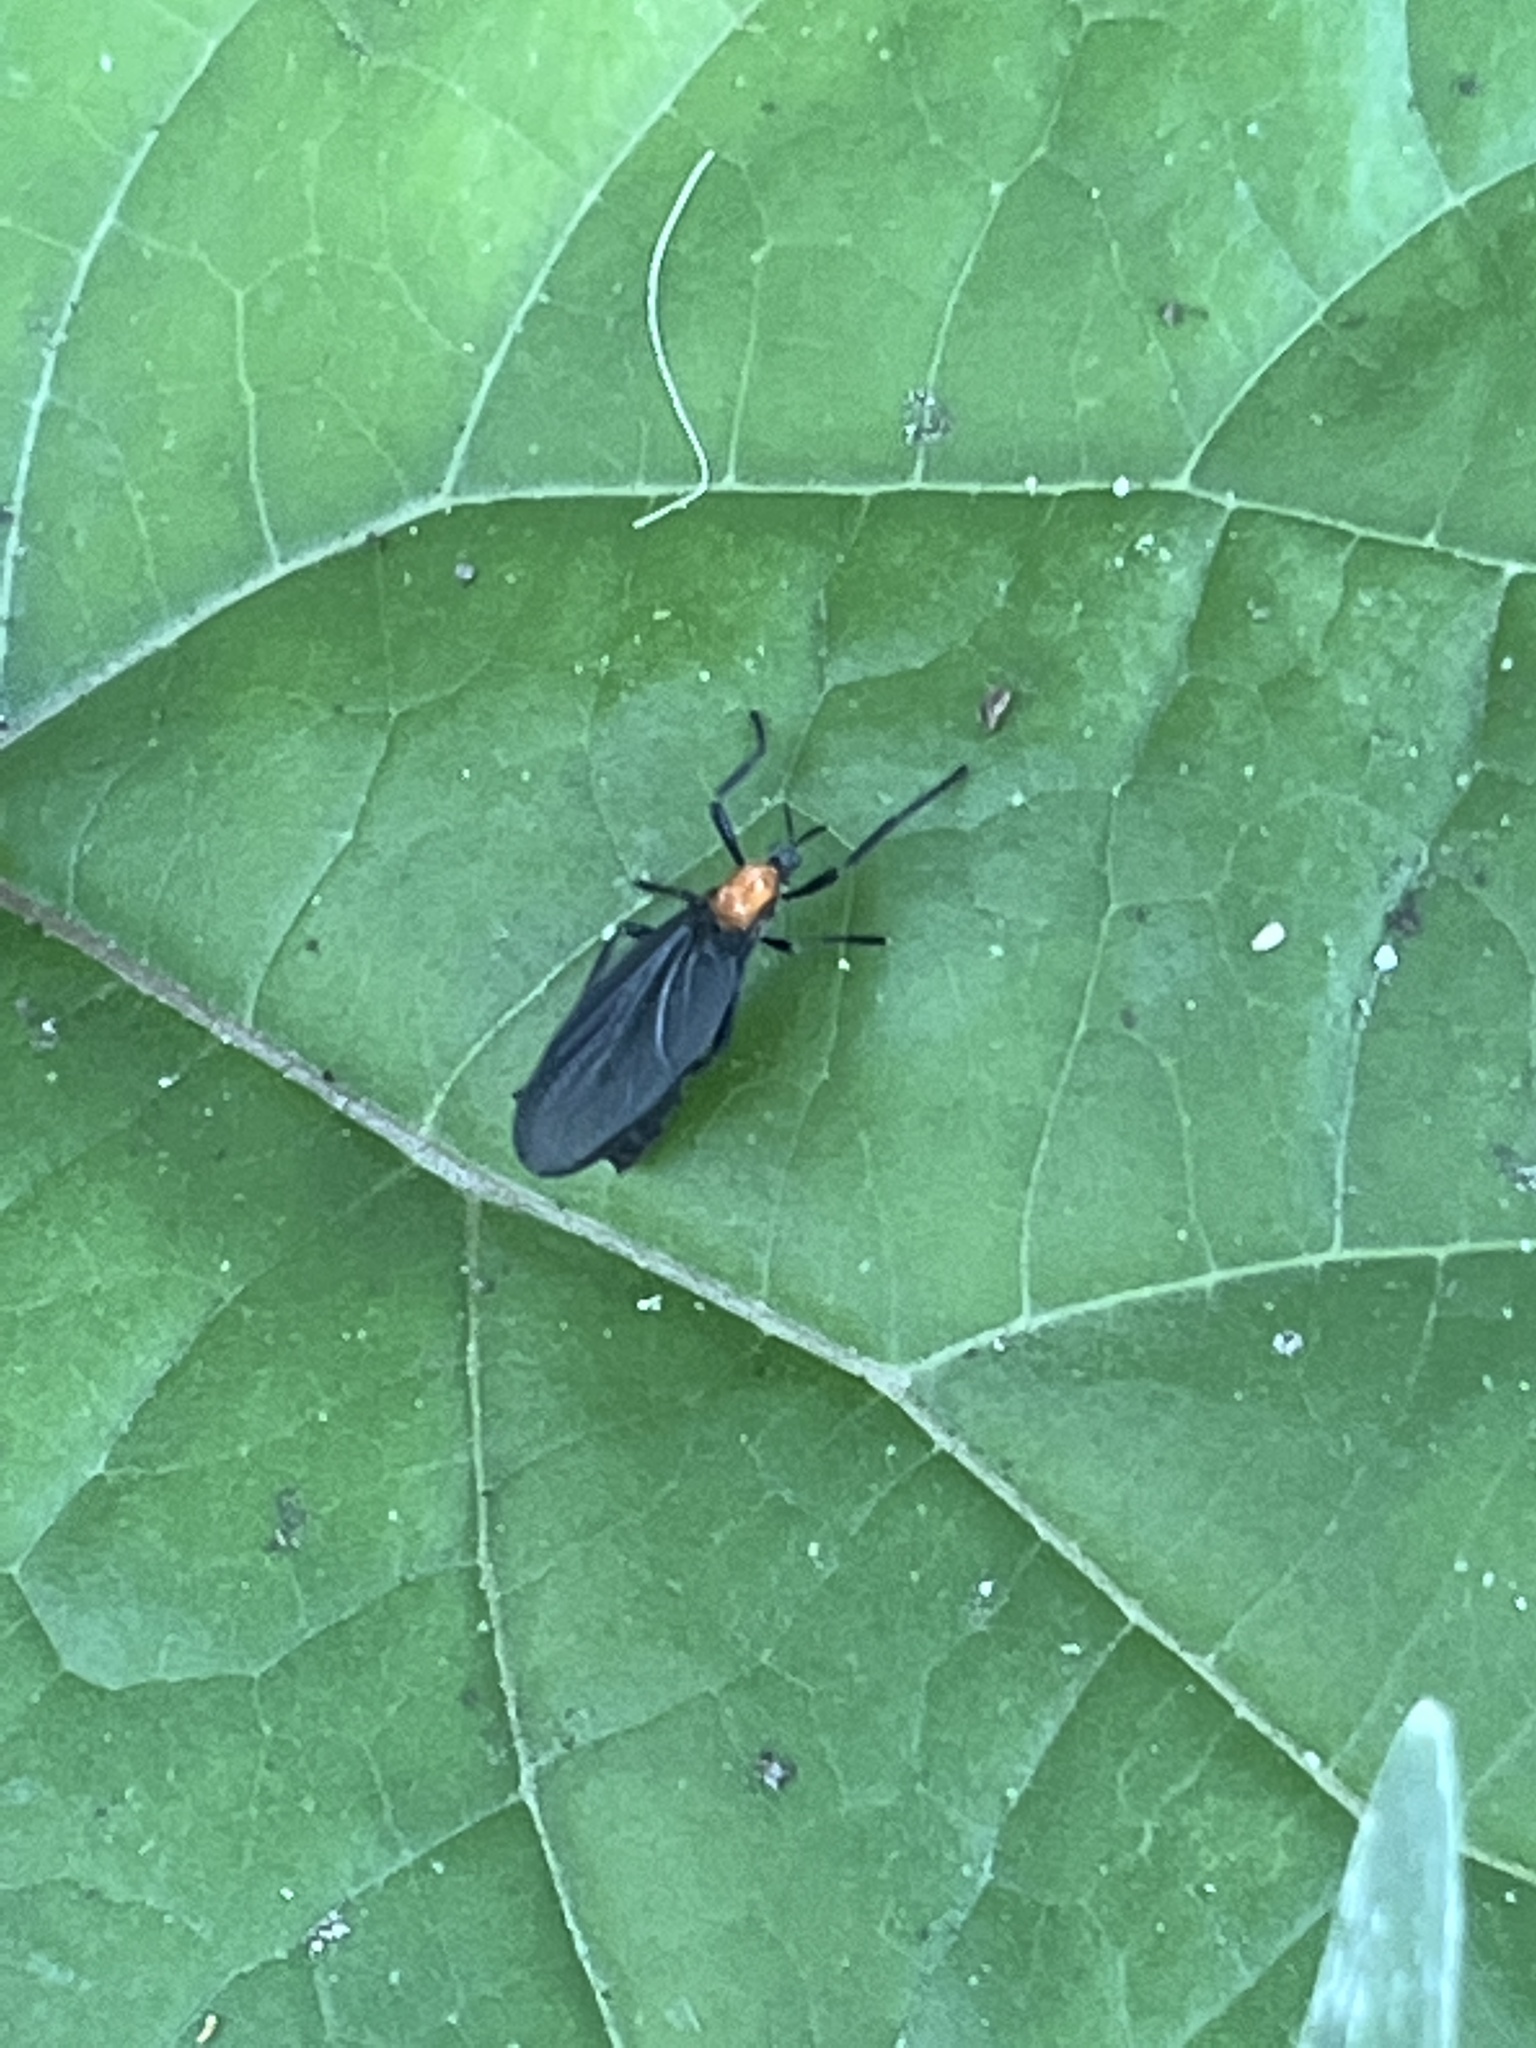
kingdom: Animalia
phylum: Arthropoda
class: Insecta
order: Diptera
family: Bibionidae
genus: Plecia
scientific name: Plecia nearctica
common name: March fly
